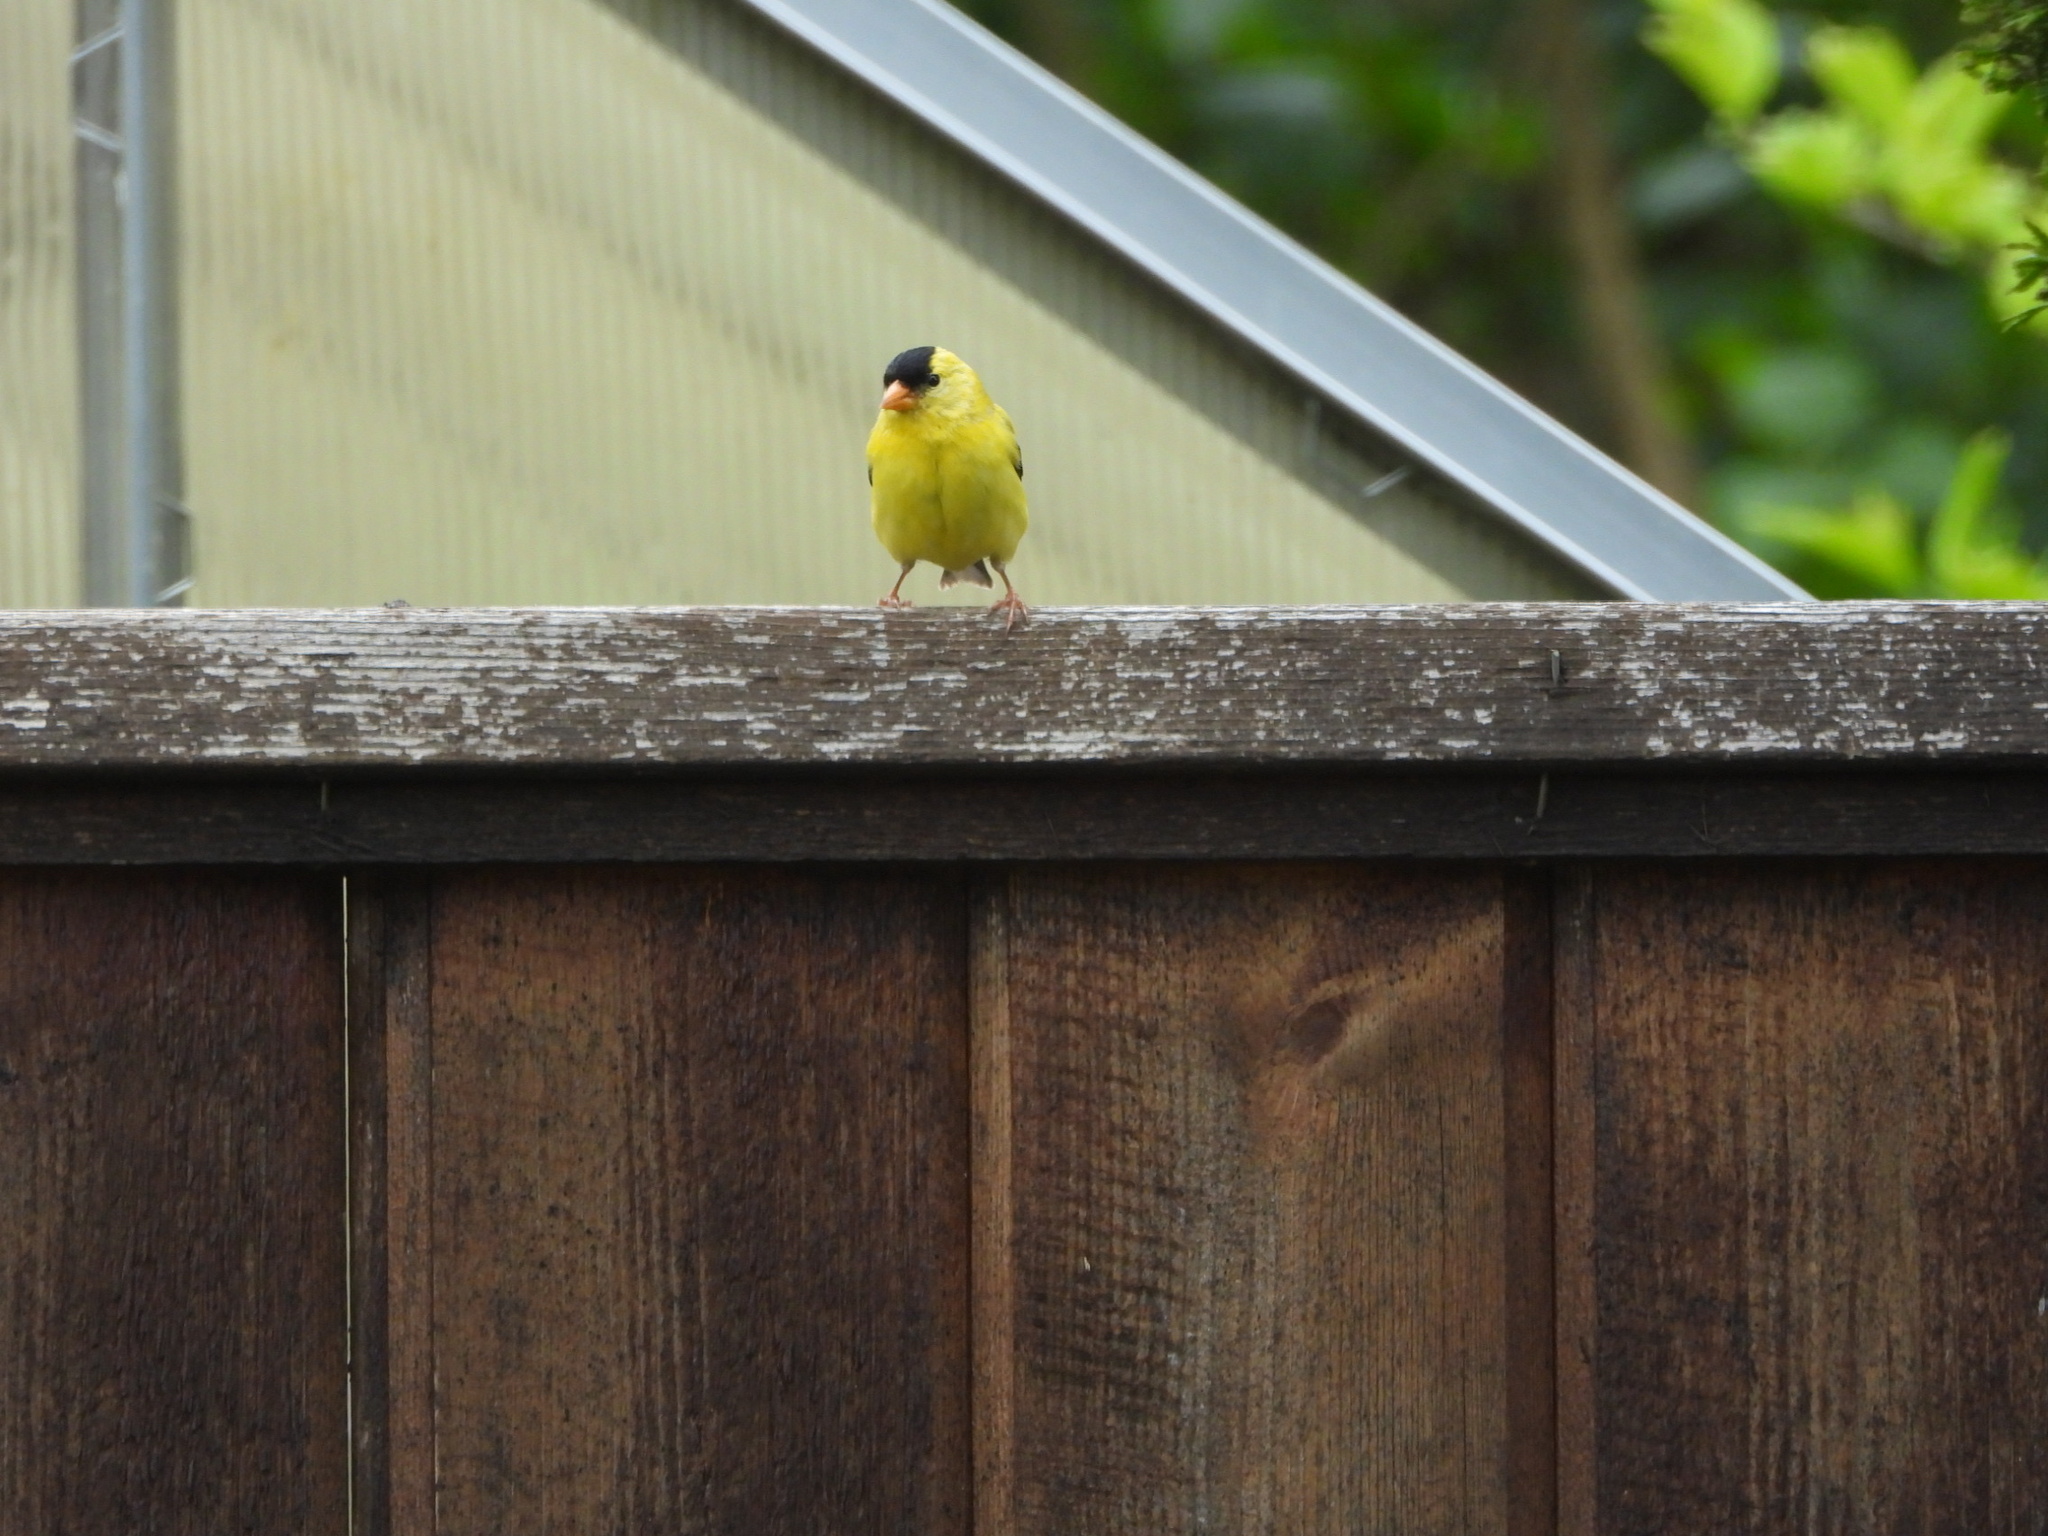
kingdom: Animalia
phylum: Chordata
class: Aves
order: Passeriformes
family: Fringillidae
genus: Spinus
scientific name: Spinus tristis
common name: American goldfinch
